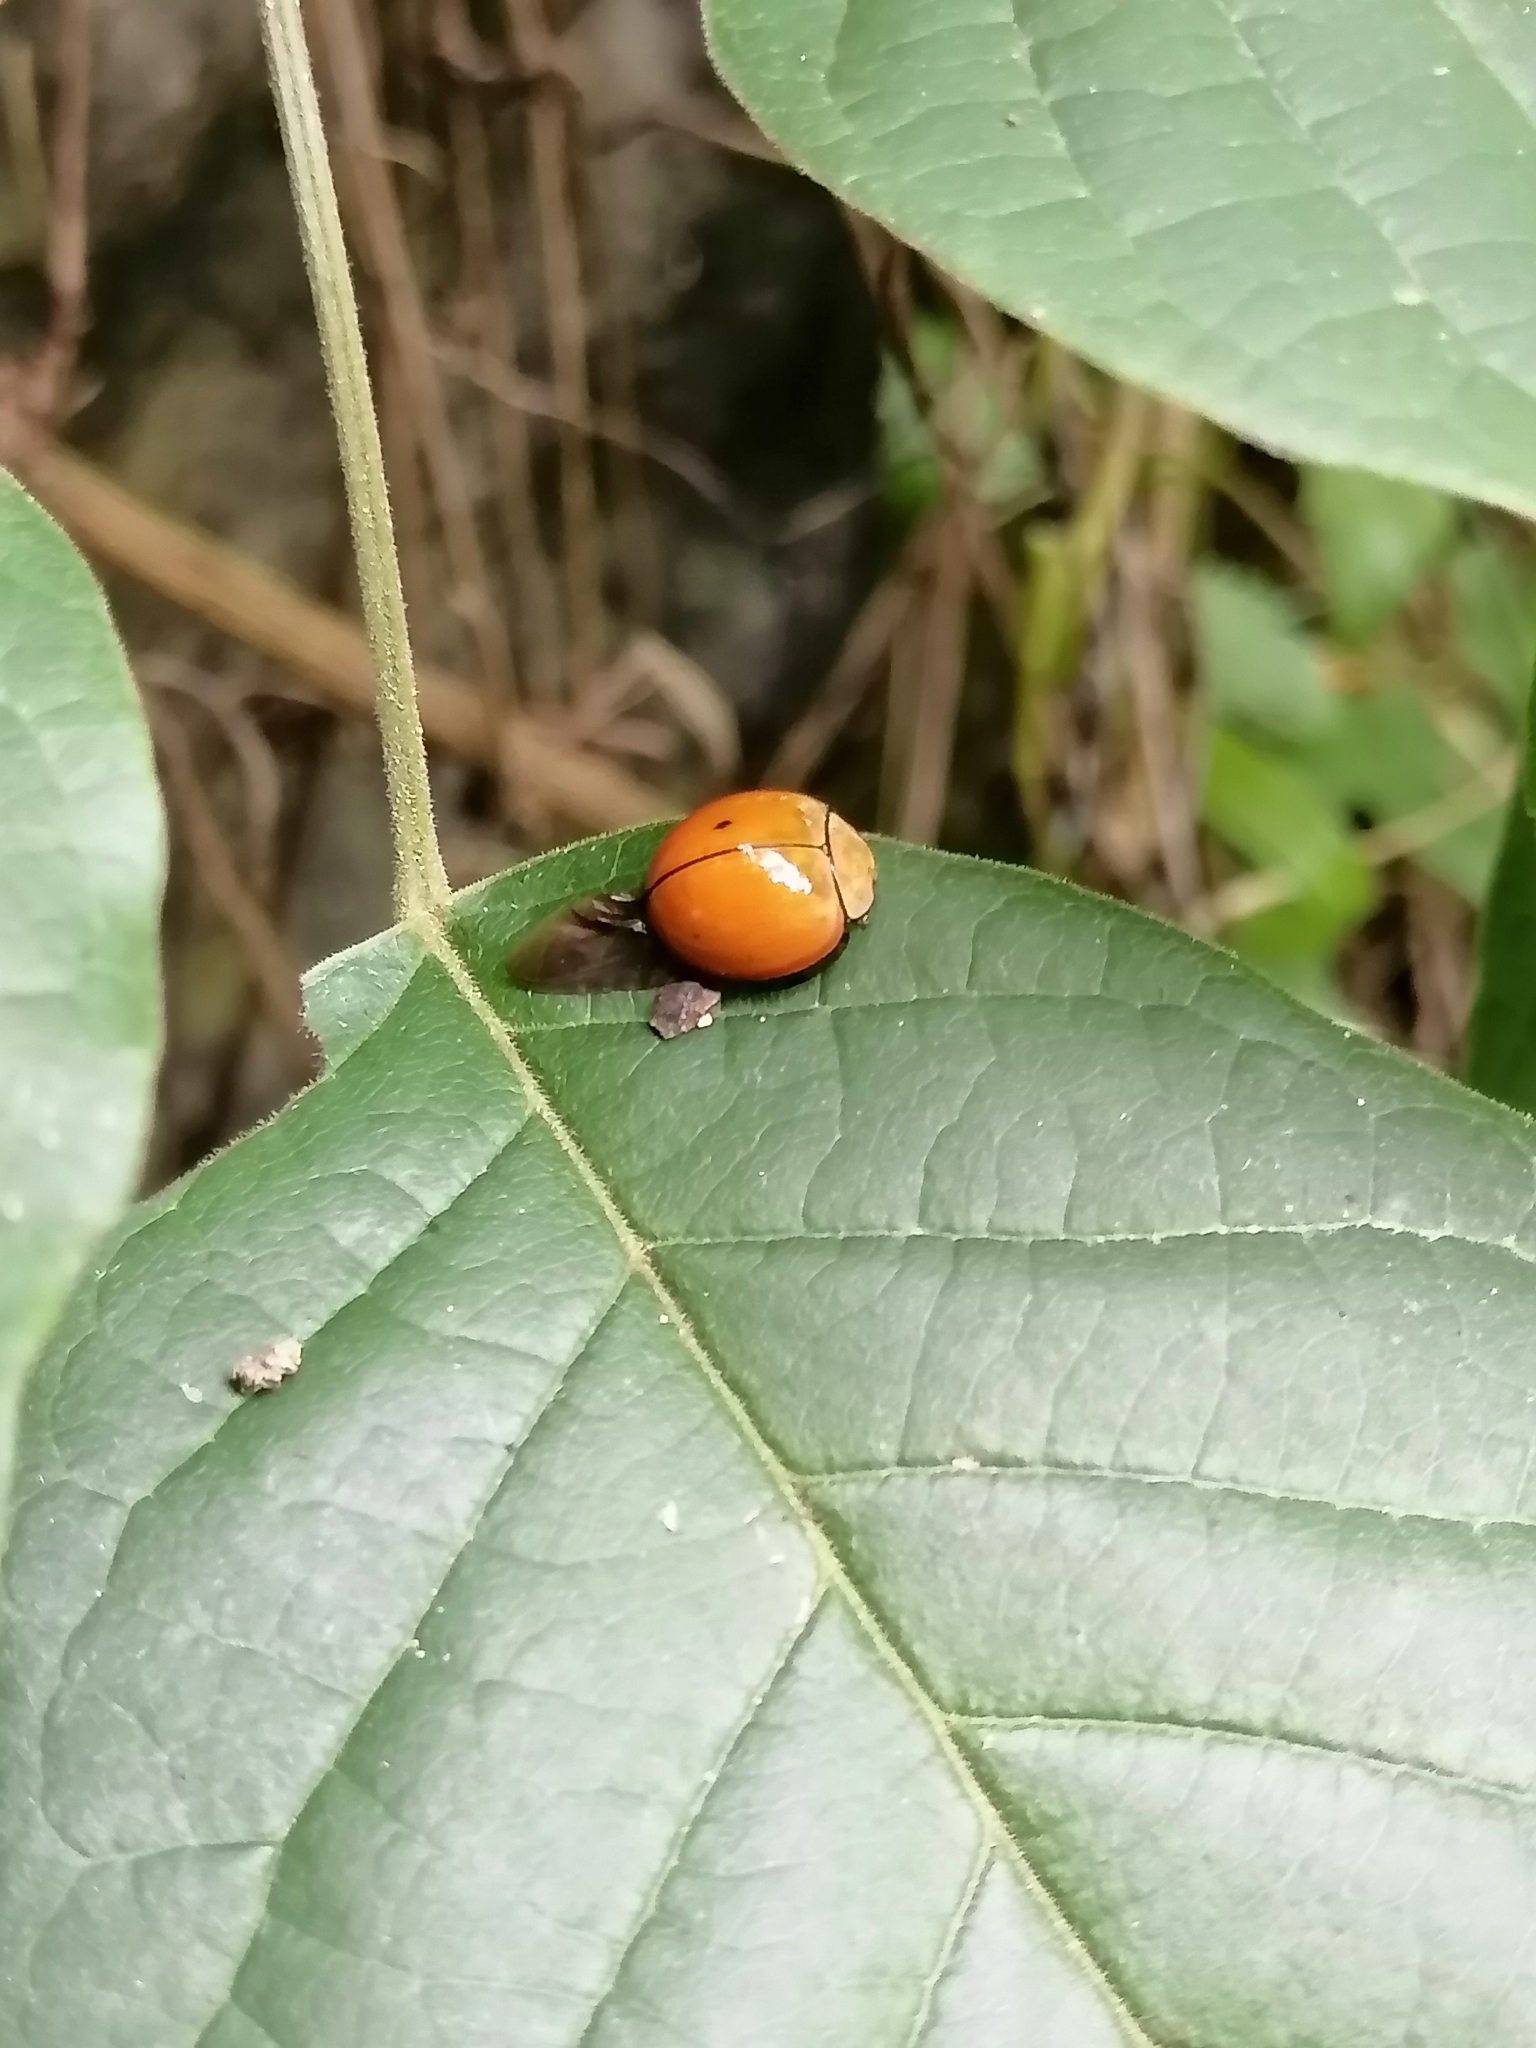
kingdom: Animalia
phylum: Arthropoda
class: Insecta
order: Coleoptera
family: Coccinellidae
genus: Neda
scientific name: Neda
